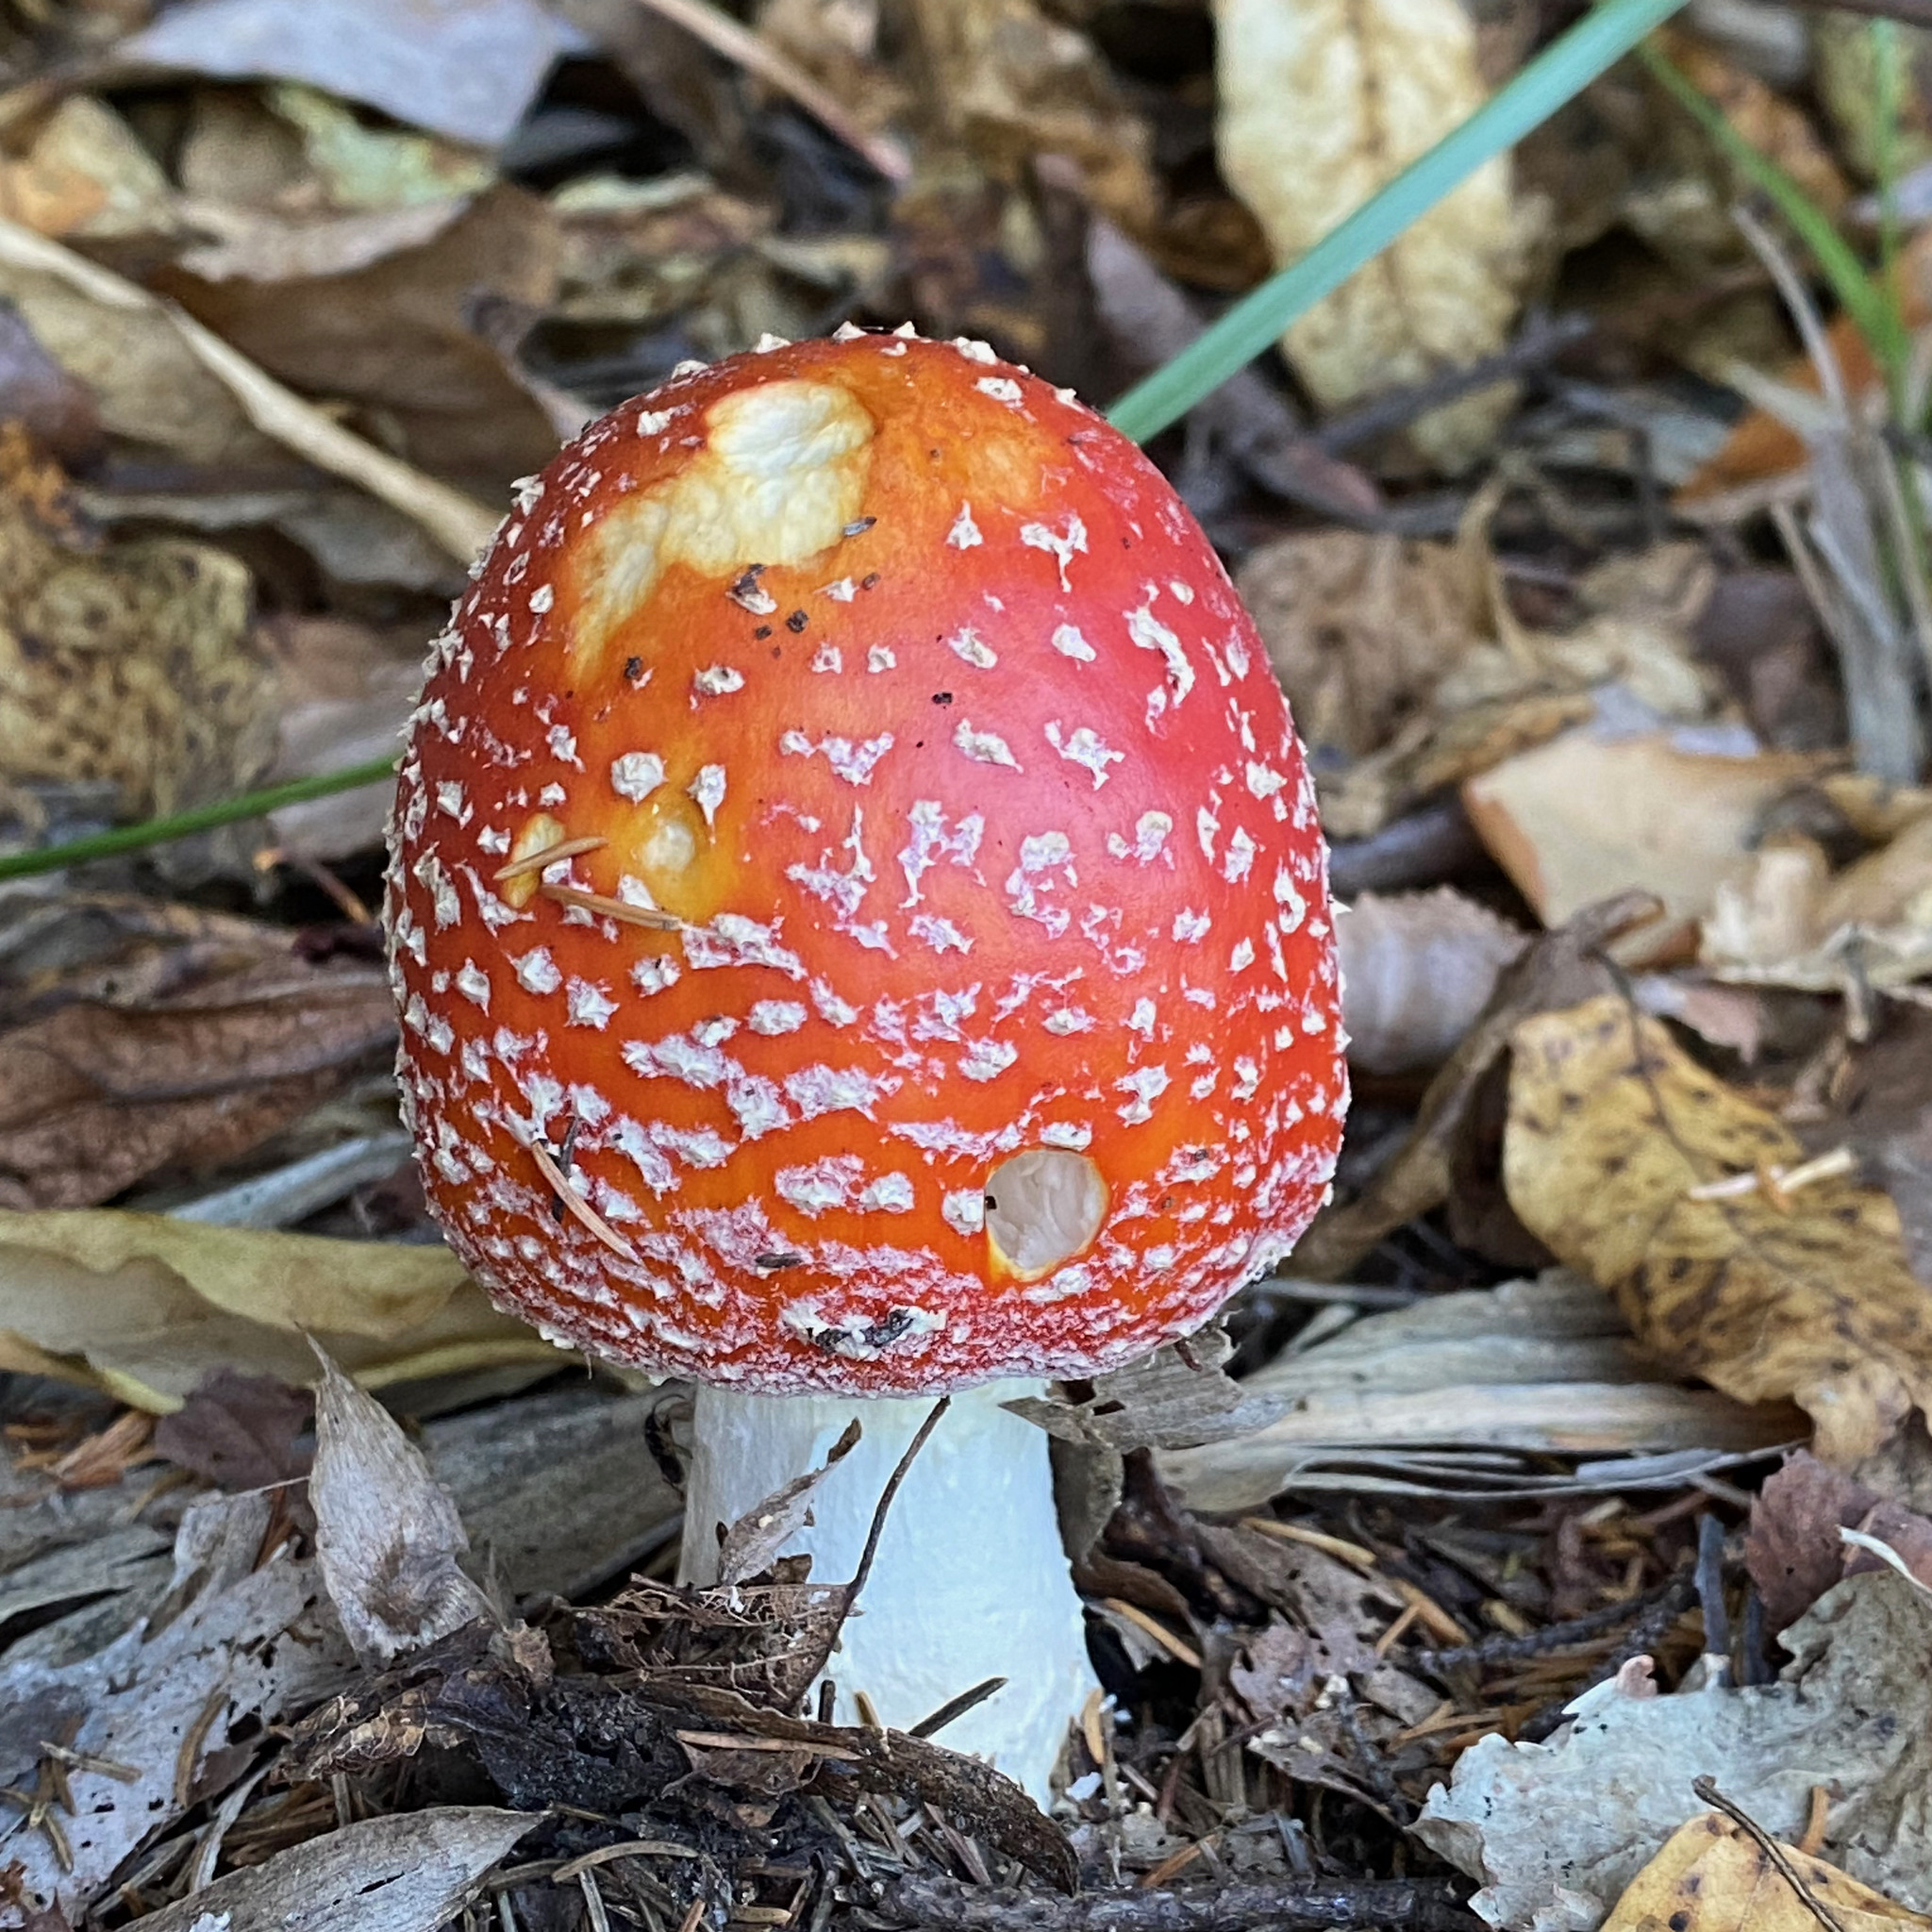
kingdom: Fungi
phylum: Basidiomycota
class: Agaricomycetes
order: Agaricales
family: Amanitaceae
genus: Amanita
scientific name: Amanita muscaria
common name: Fly agaric
